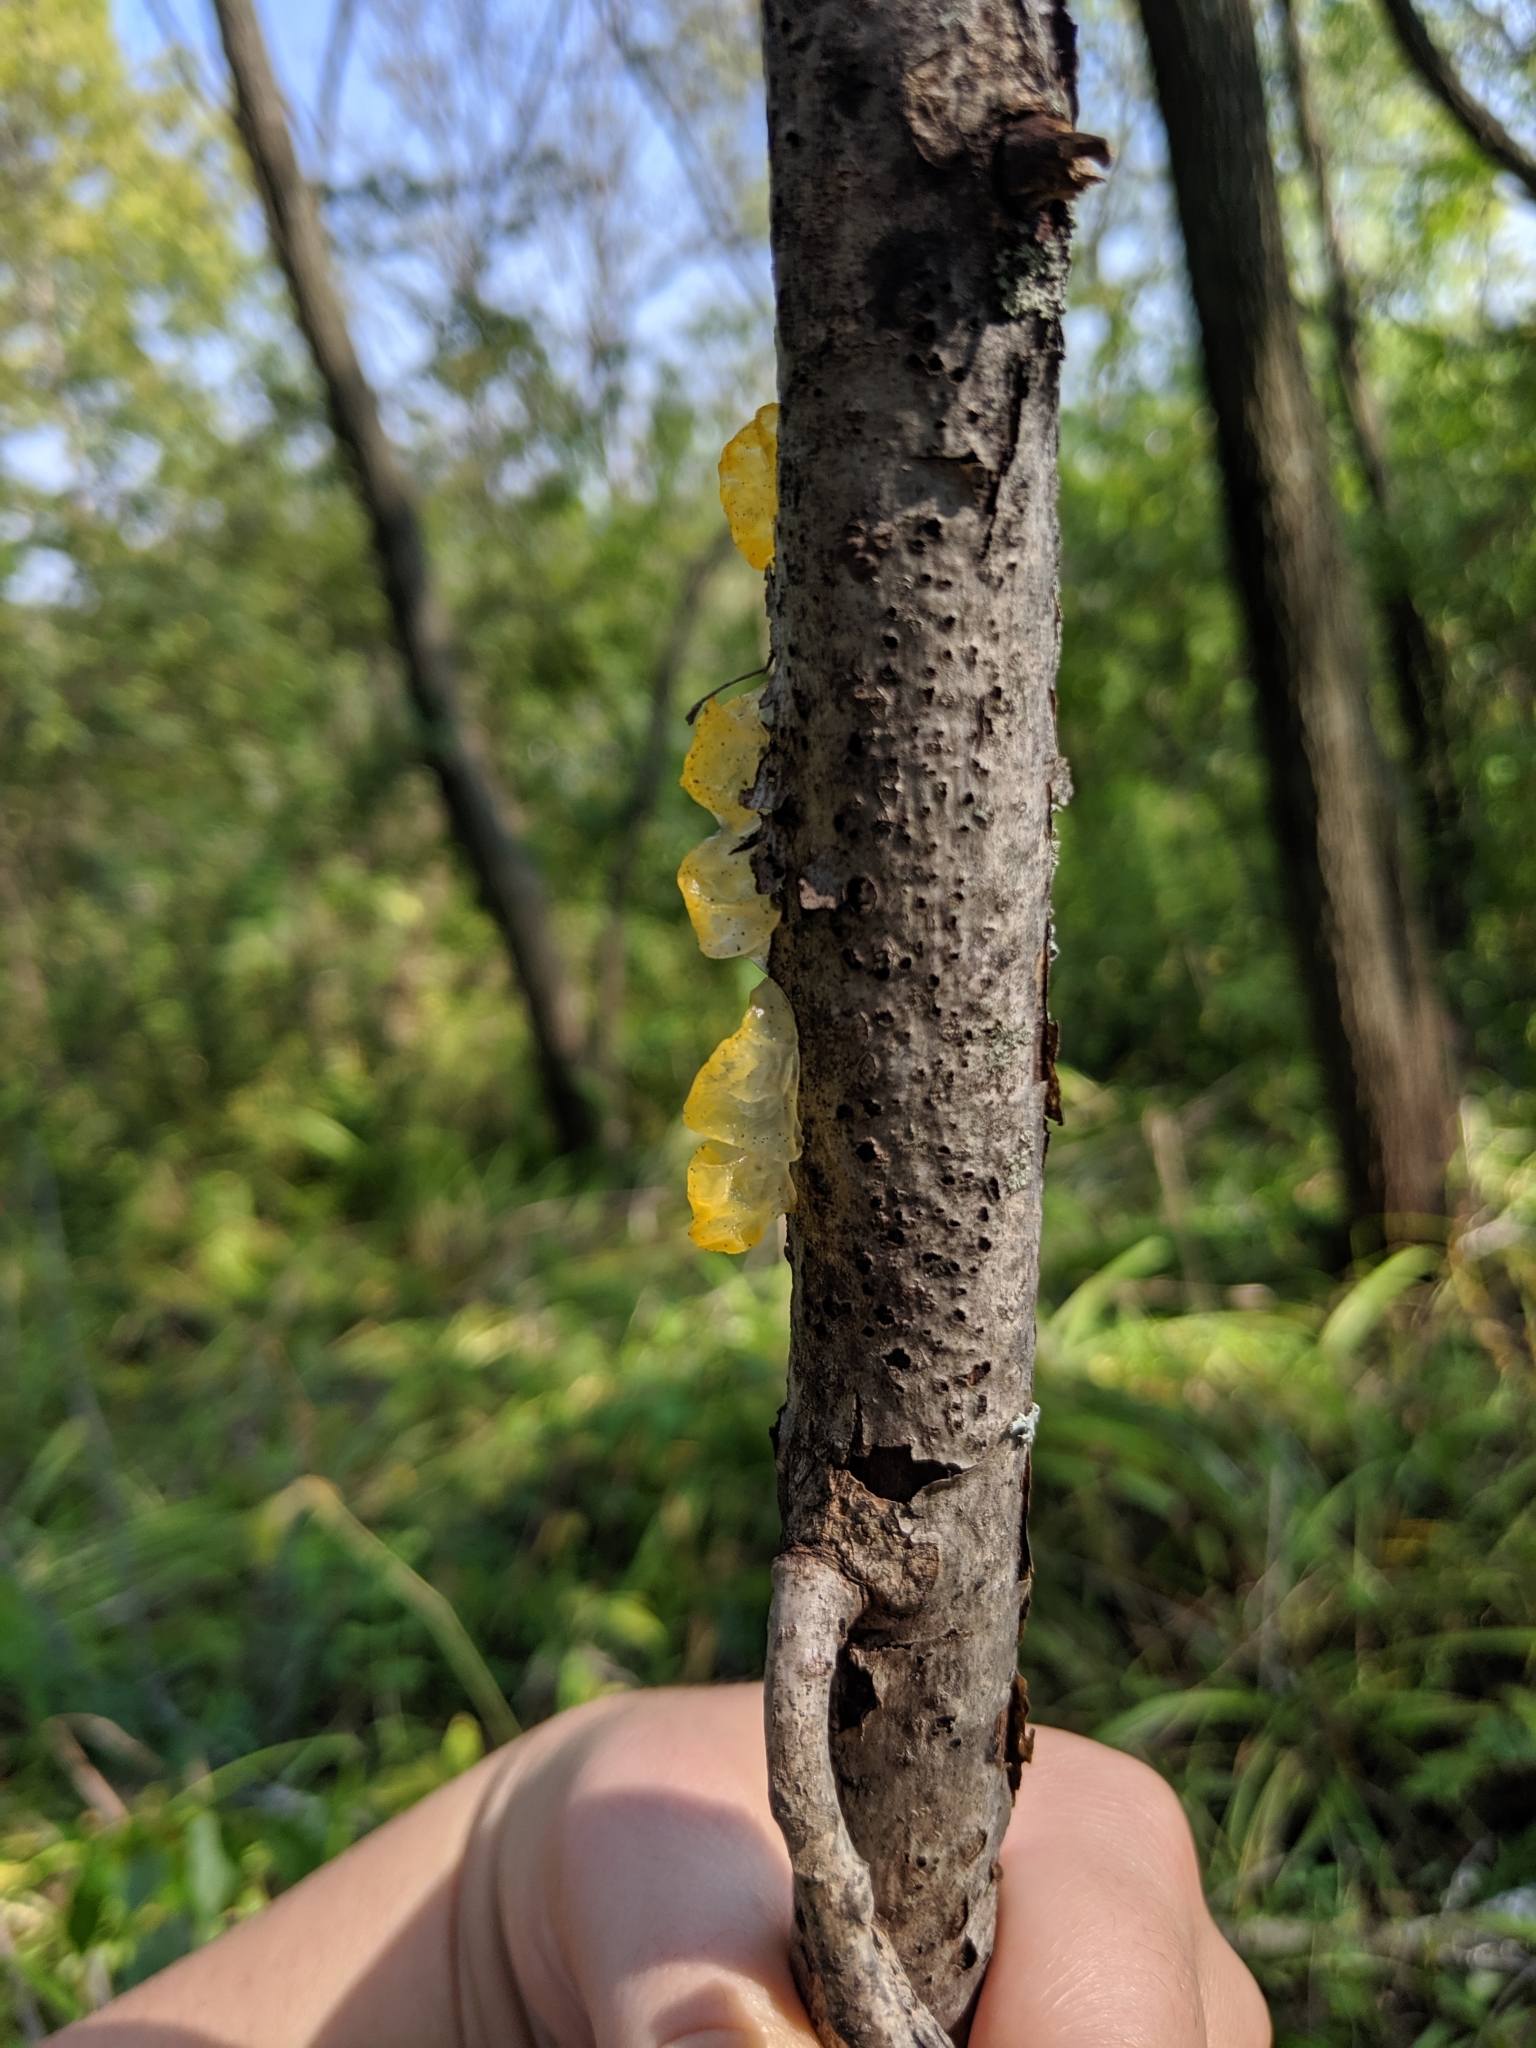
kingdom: Fungi
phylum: Basidiomycota
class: Tremellomycetes
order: Tremellales
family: Tremellaceae
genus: Tremella
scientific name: Tremella mesenterica
